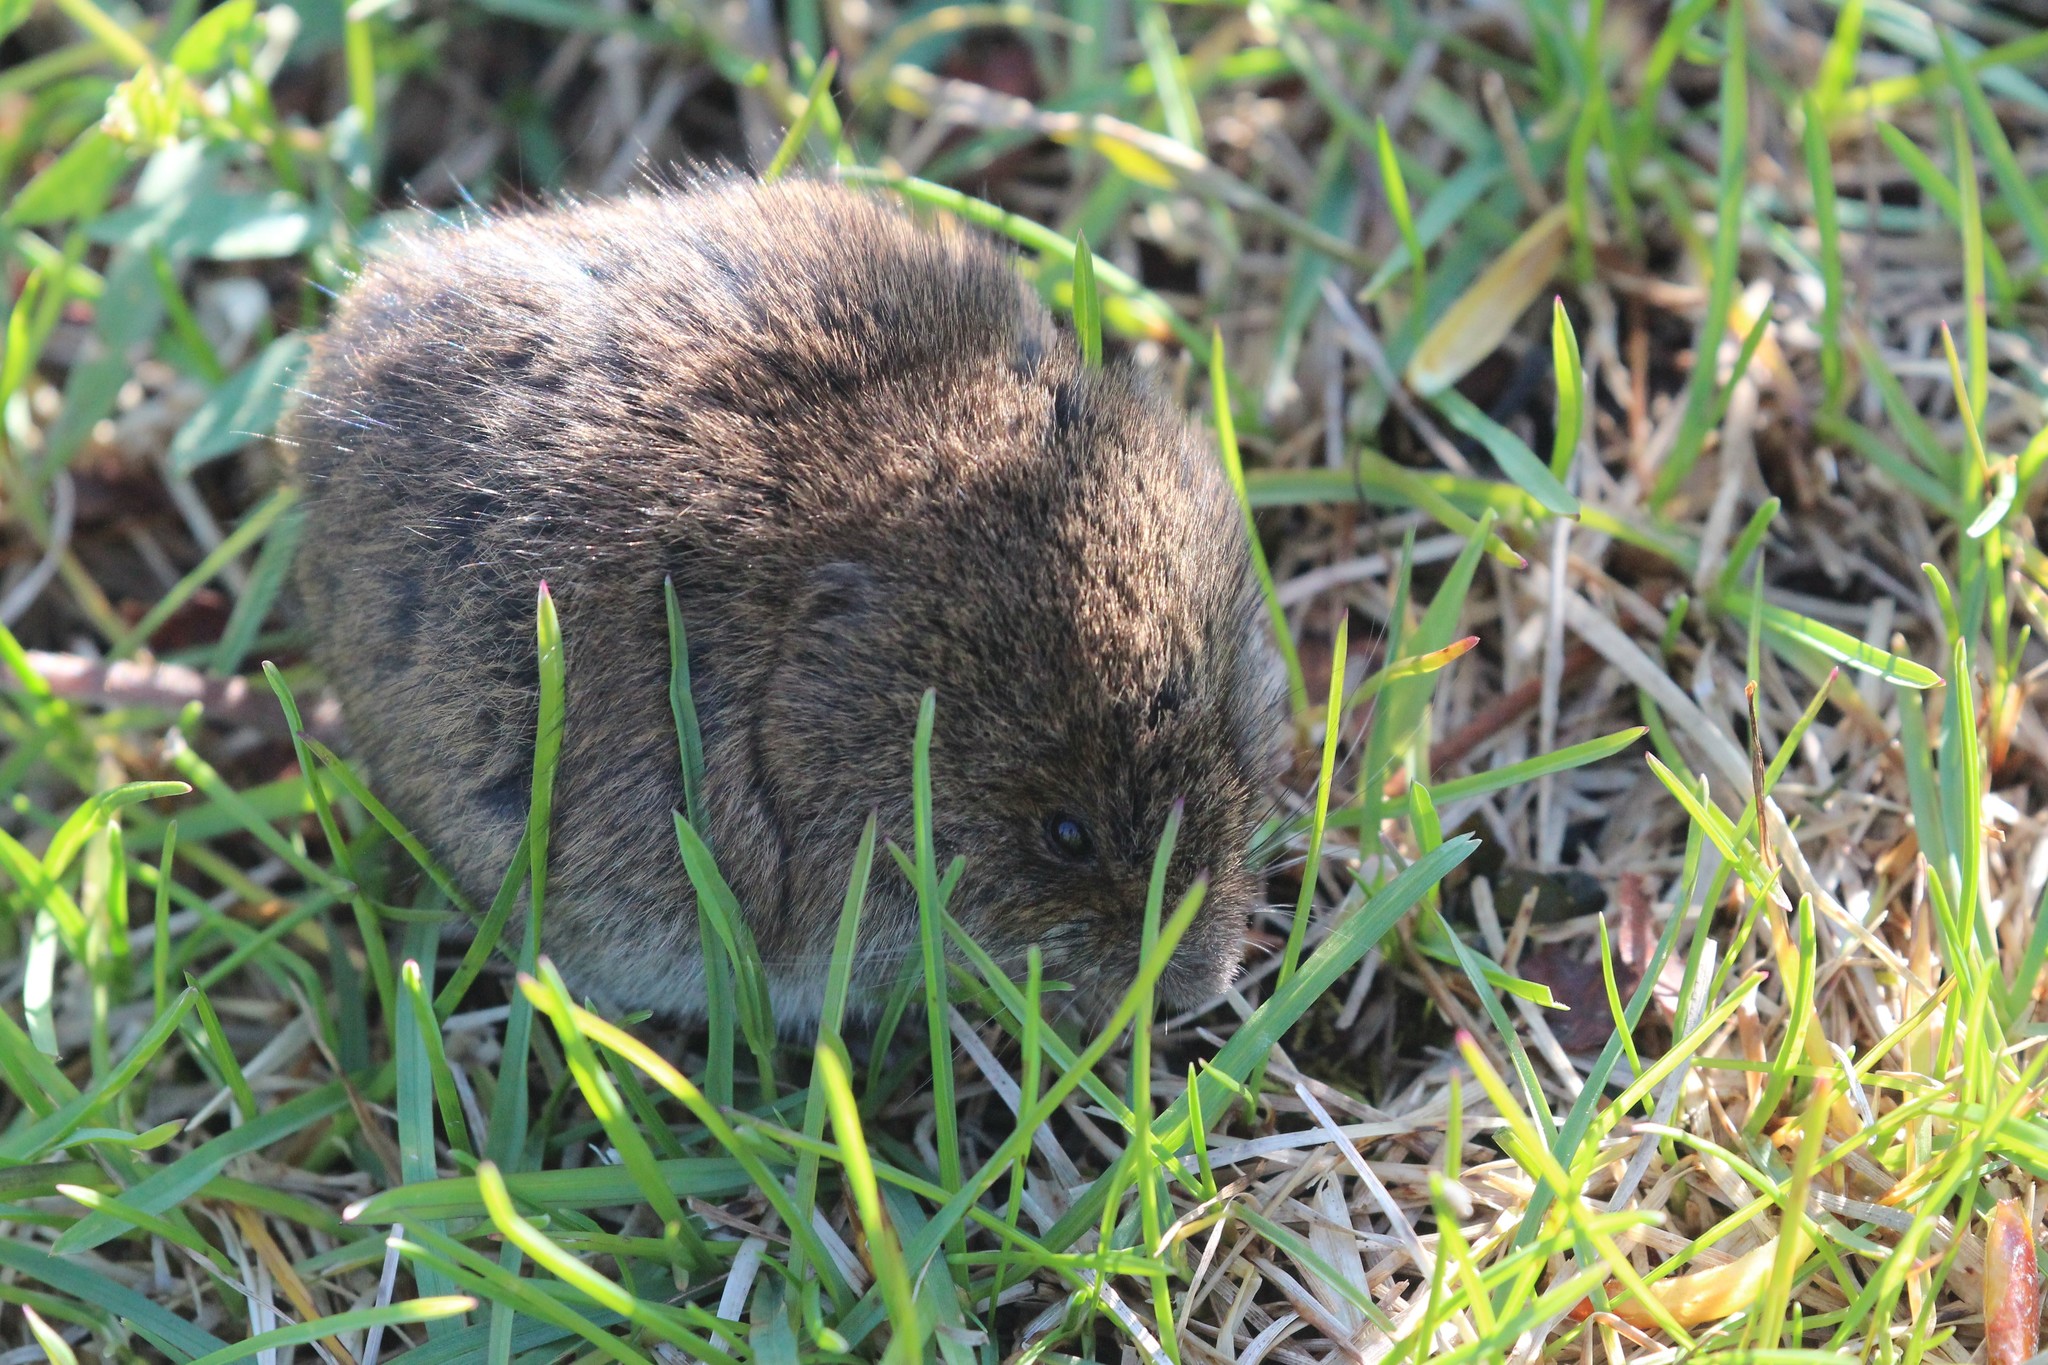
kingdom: Animalia
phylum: Chordata
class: Mammalia
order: Rodentia
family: Cricetidae
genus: Microtus
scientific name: Microtus pennsylvanicus
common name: Meadow vole
